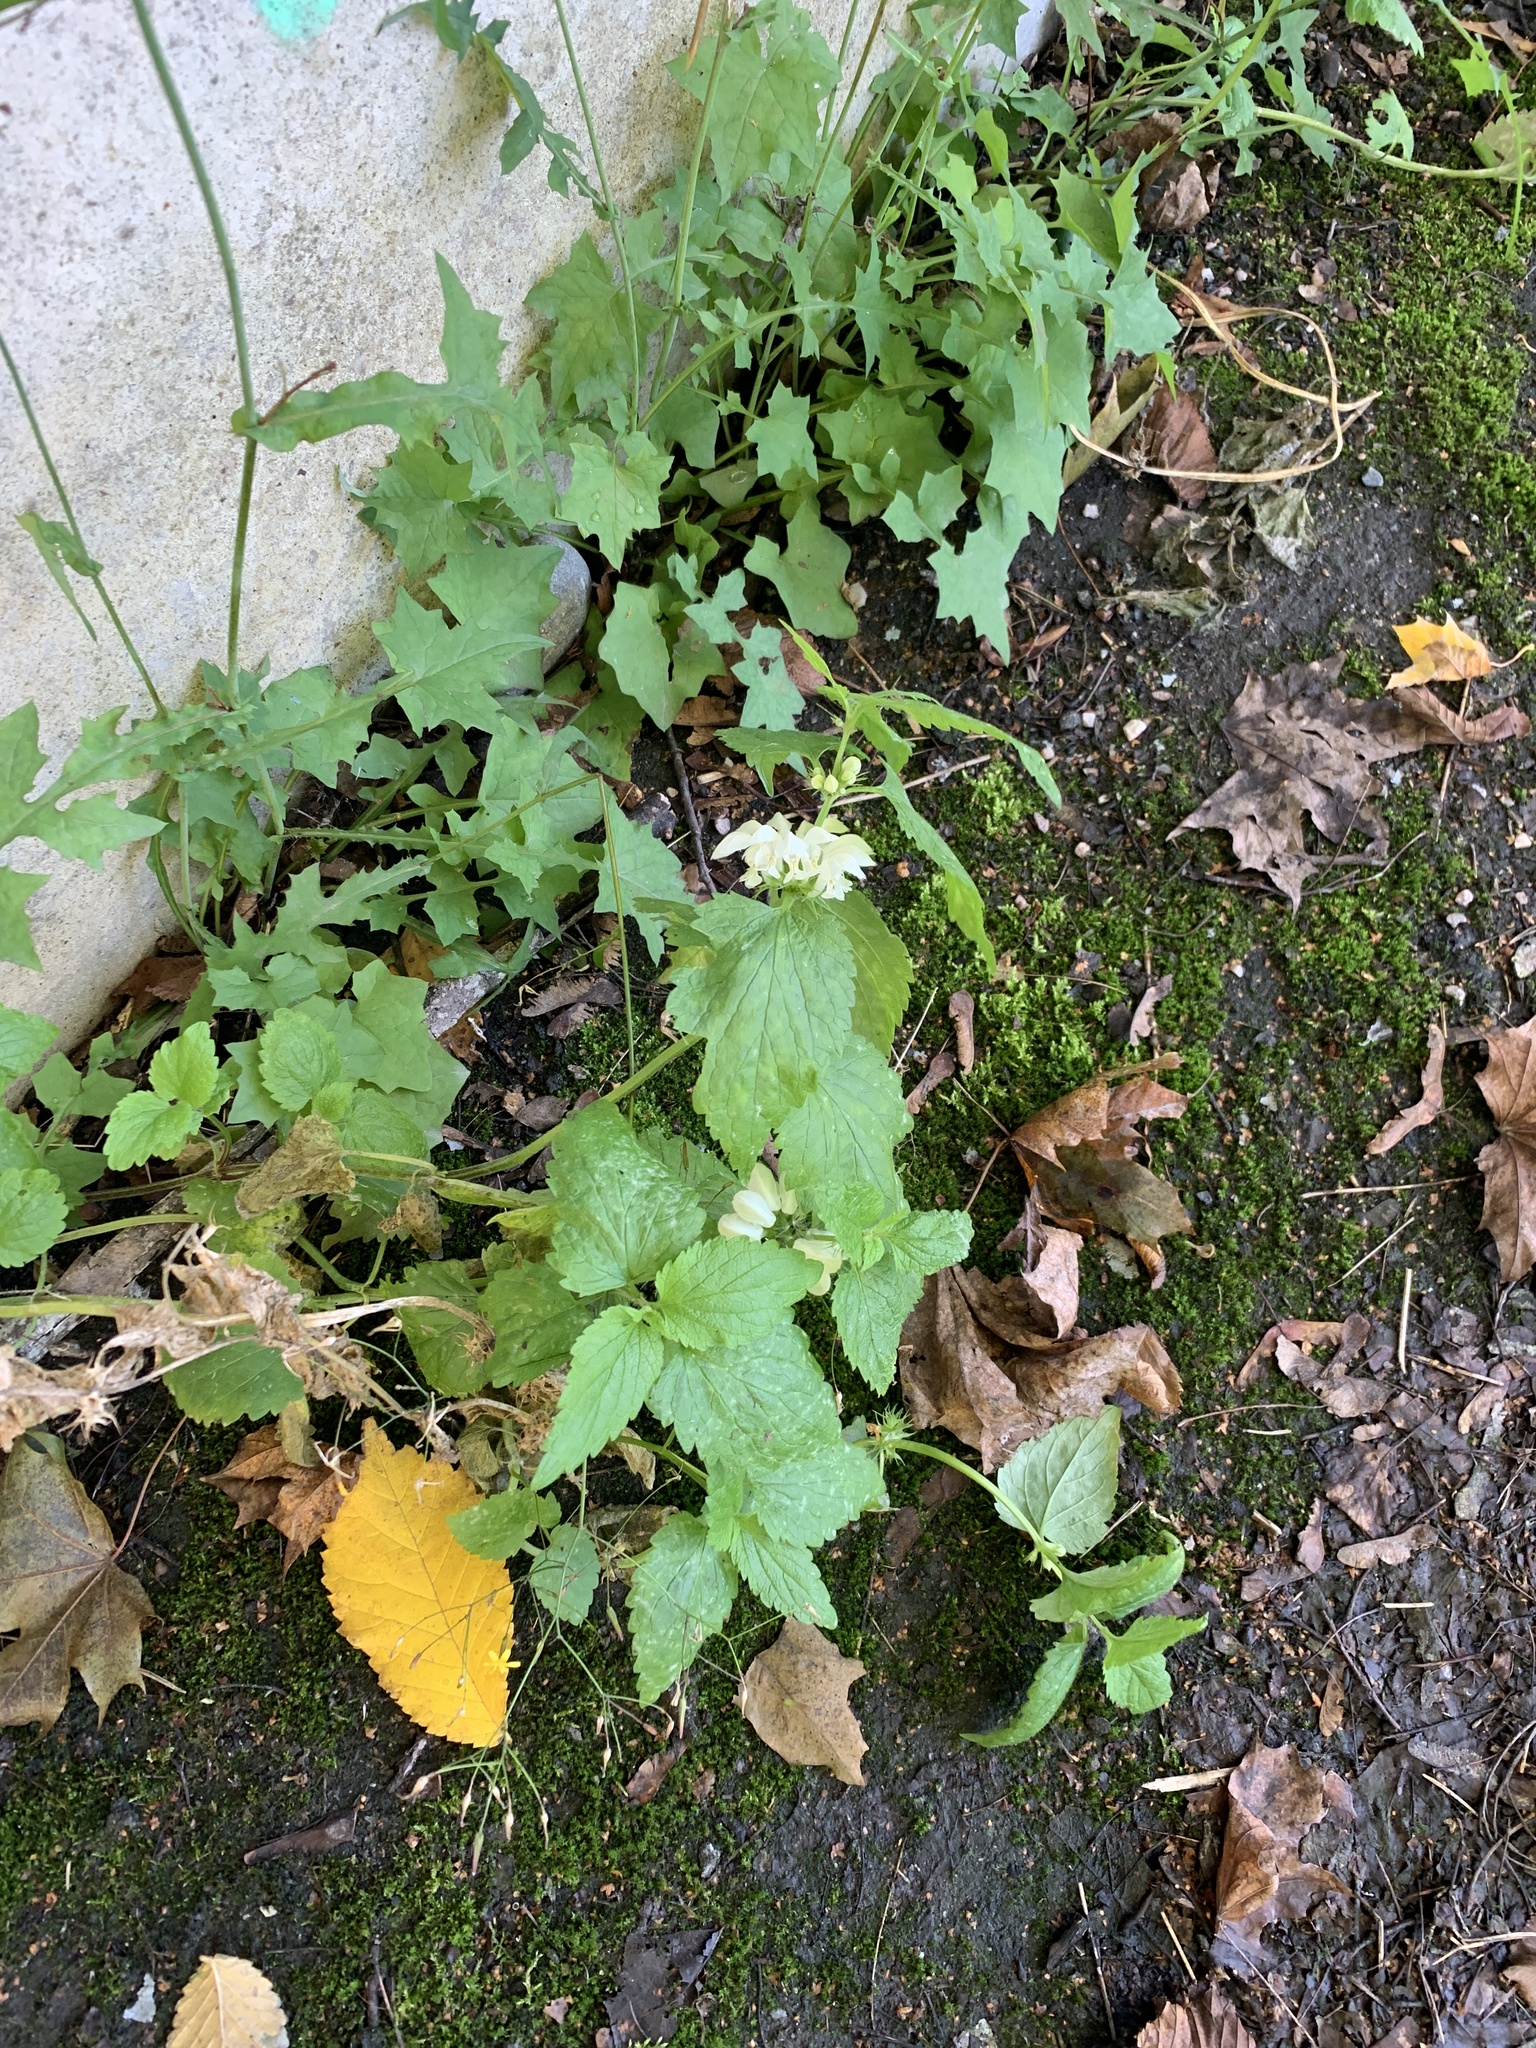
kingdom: Plantae
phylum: Tracheophyta
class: Magnoliopsida
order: Lamiales
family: Lamiaceae
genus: Lamium
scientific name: Lamium album
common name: White dead-nettle
